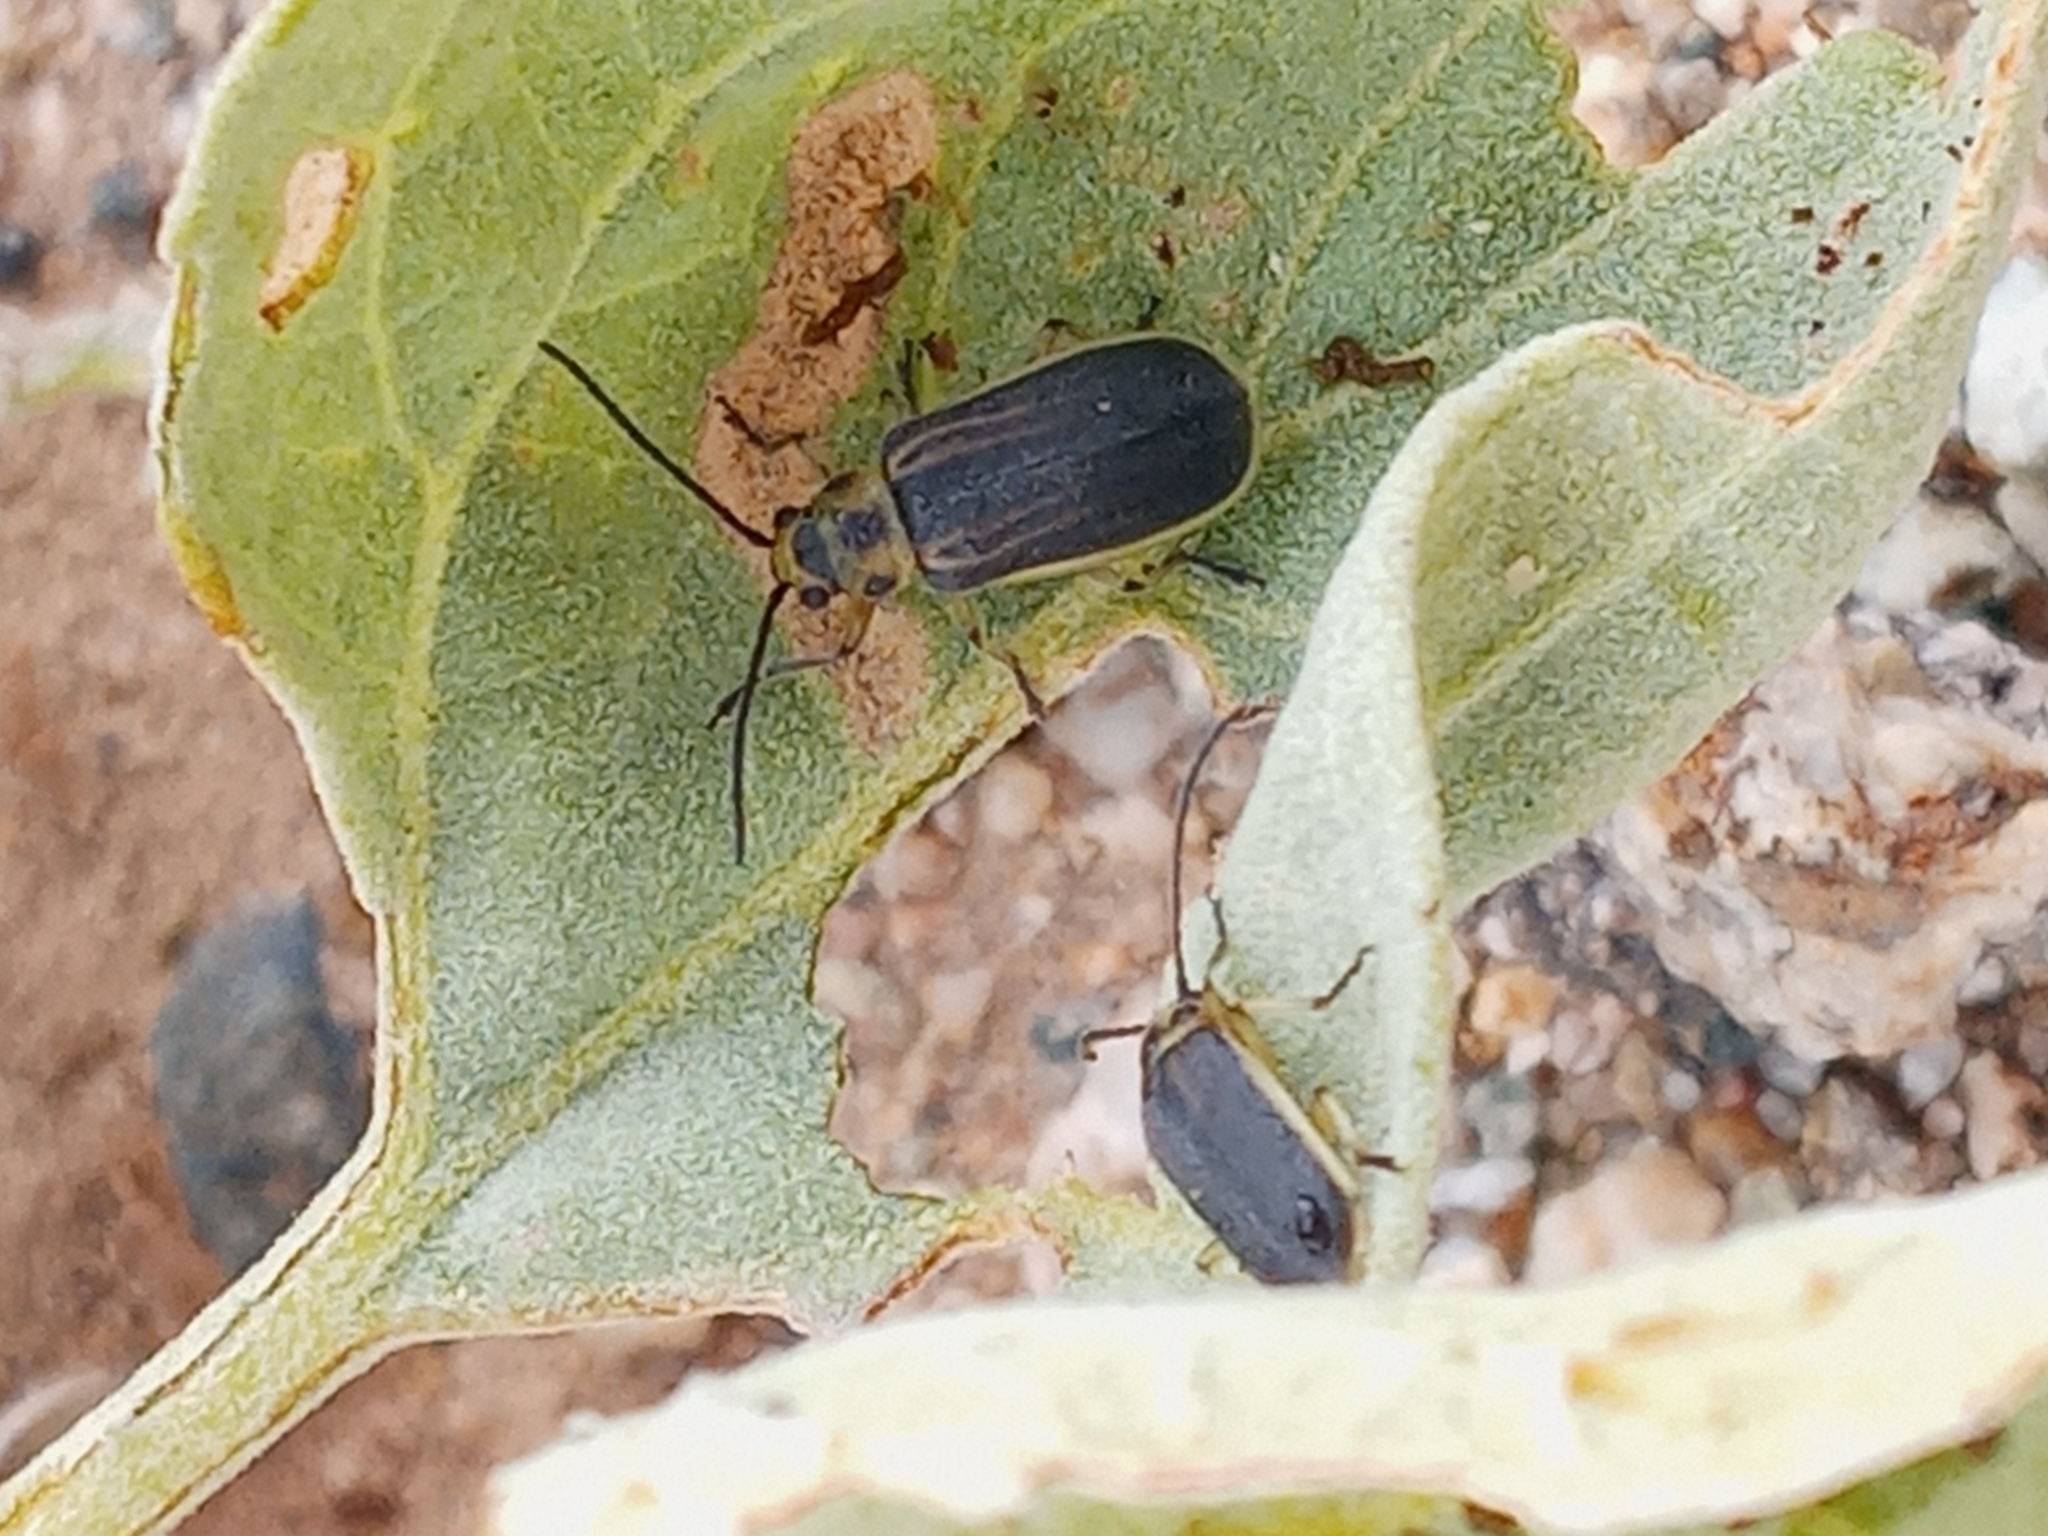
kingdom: Animalia
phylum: Arthropoda
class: Insecta
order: Coleoptera
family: Chrysomelidae
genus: Trirhabda
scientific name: Trirhabda geminata
